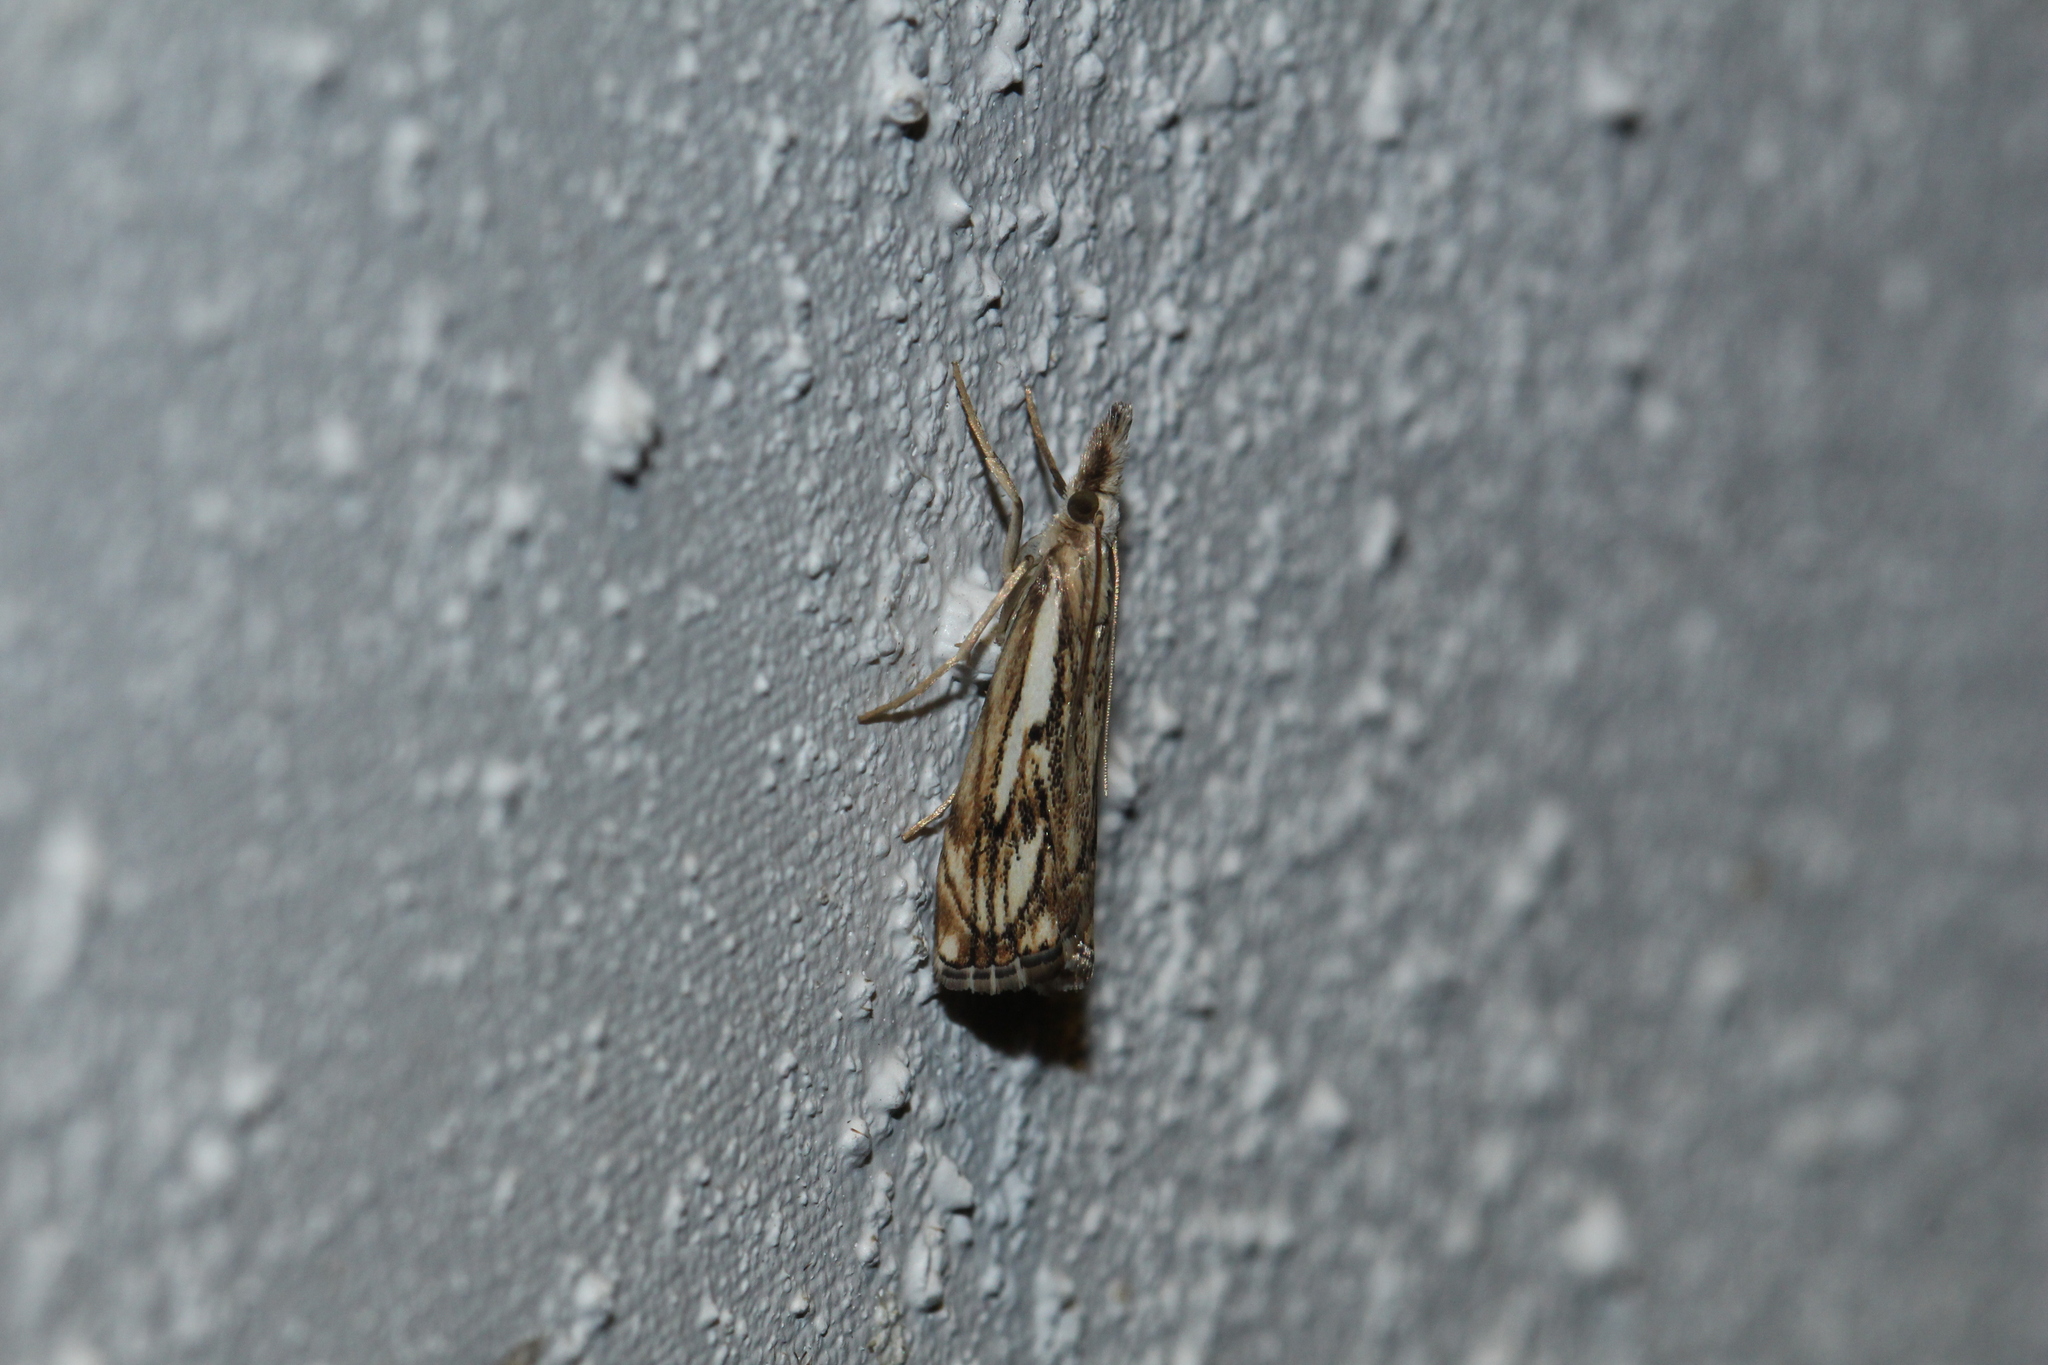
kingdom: Animalia
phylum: Arthropoda
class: Insecta
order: Lepidoptera
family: Crambidae
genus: Catoptria
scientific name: Catoptria falsella
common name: Chequered grass-veneer
